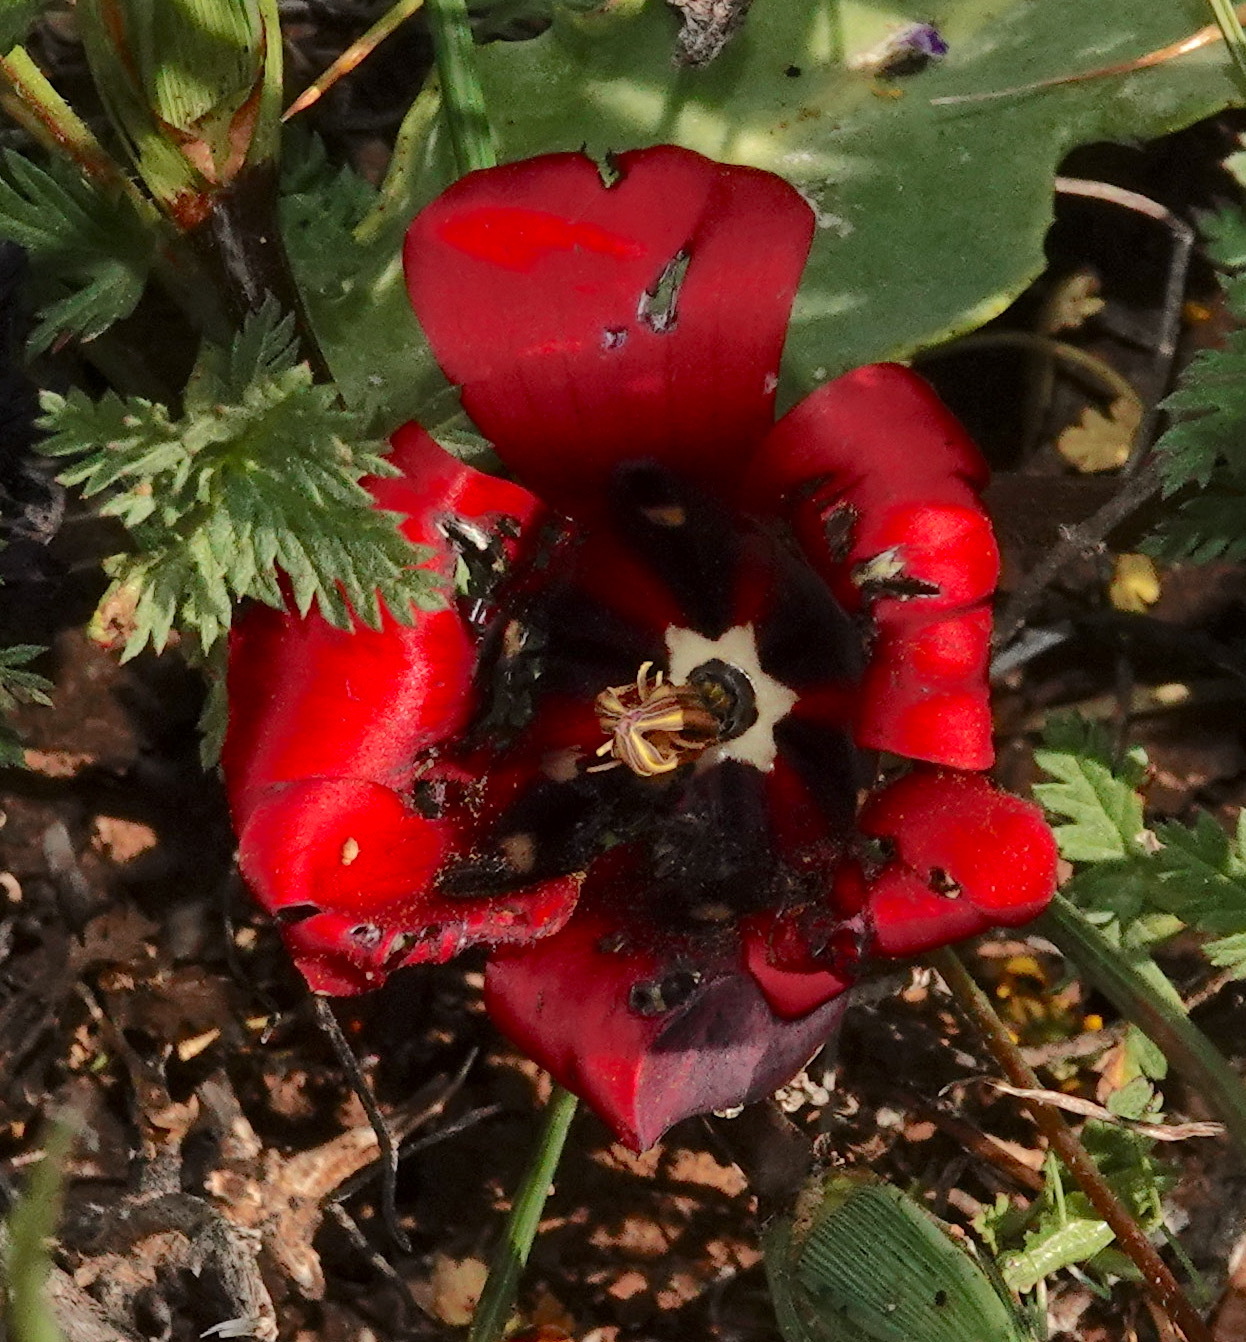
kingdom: Plantae
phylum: Tracheophyta
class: Liliopsida
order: Asparagales
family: Iridaceae
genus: Romulea
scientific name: Romulea monadelpha
